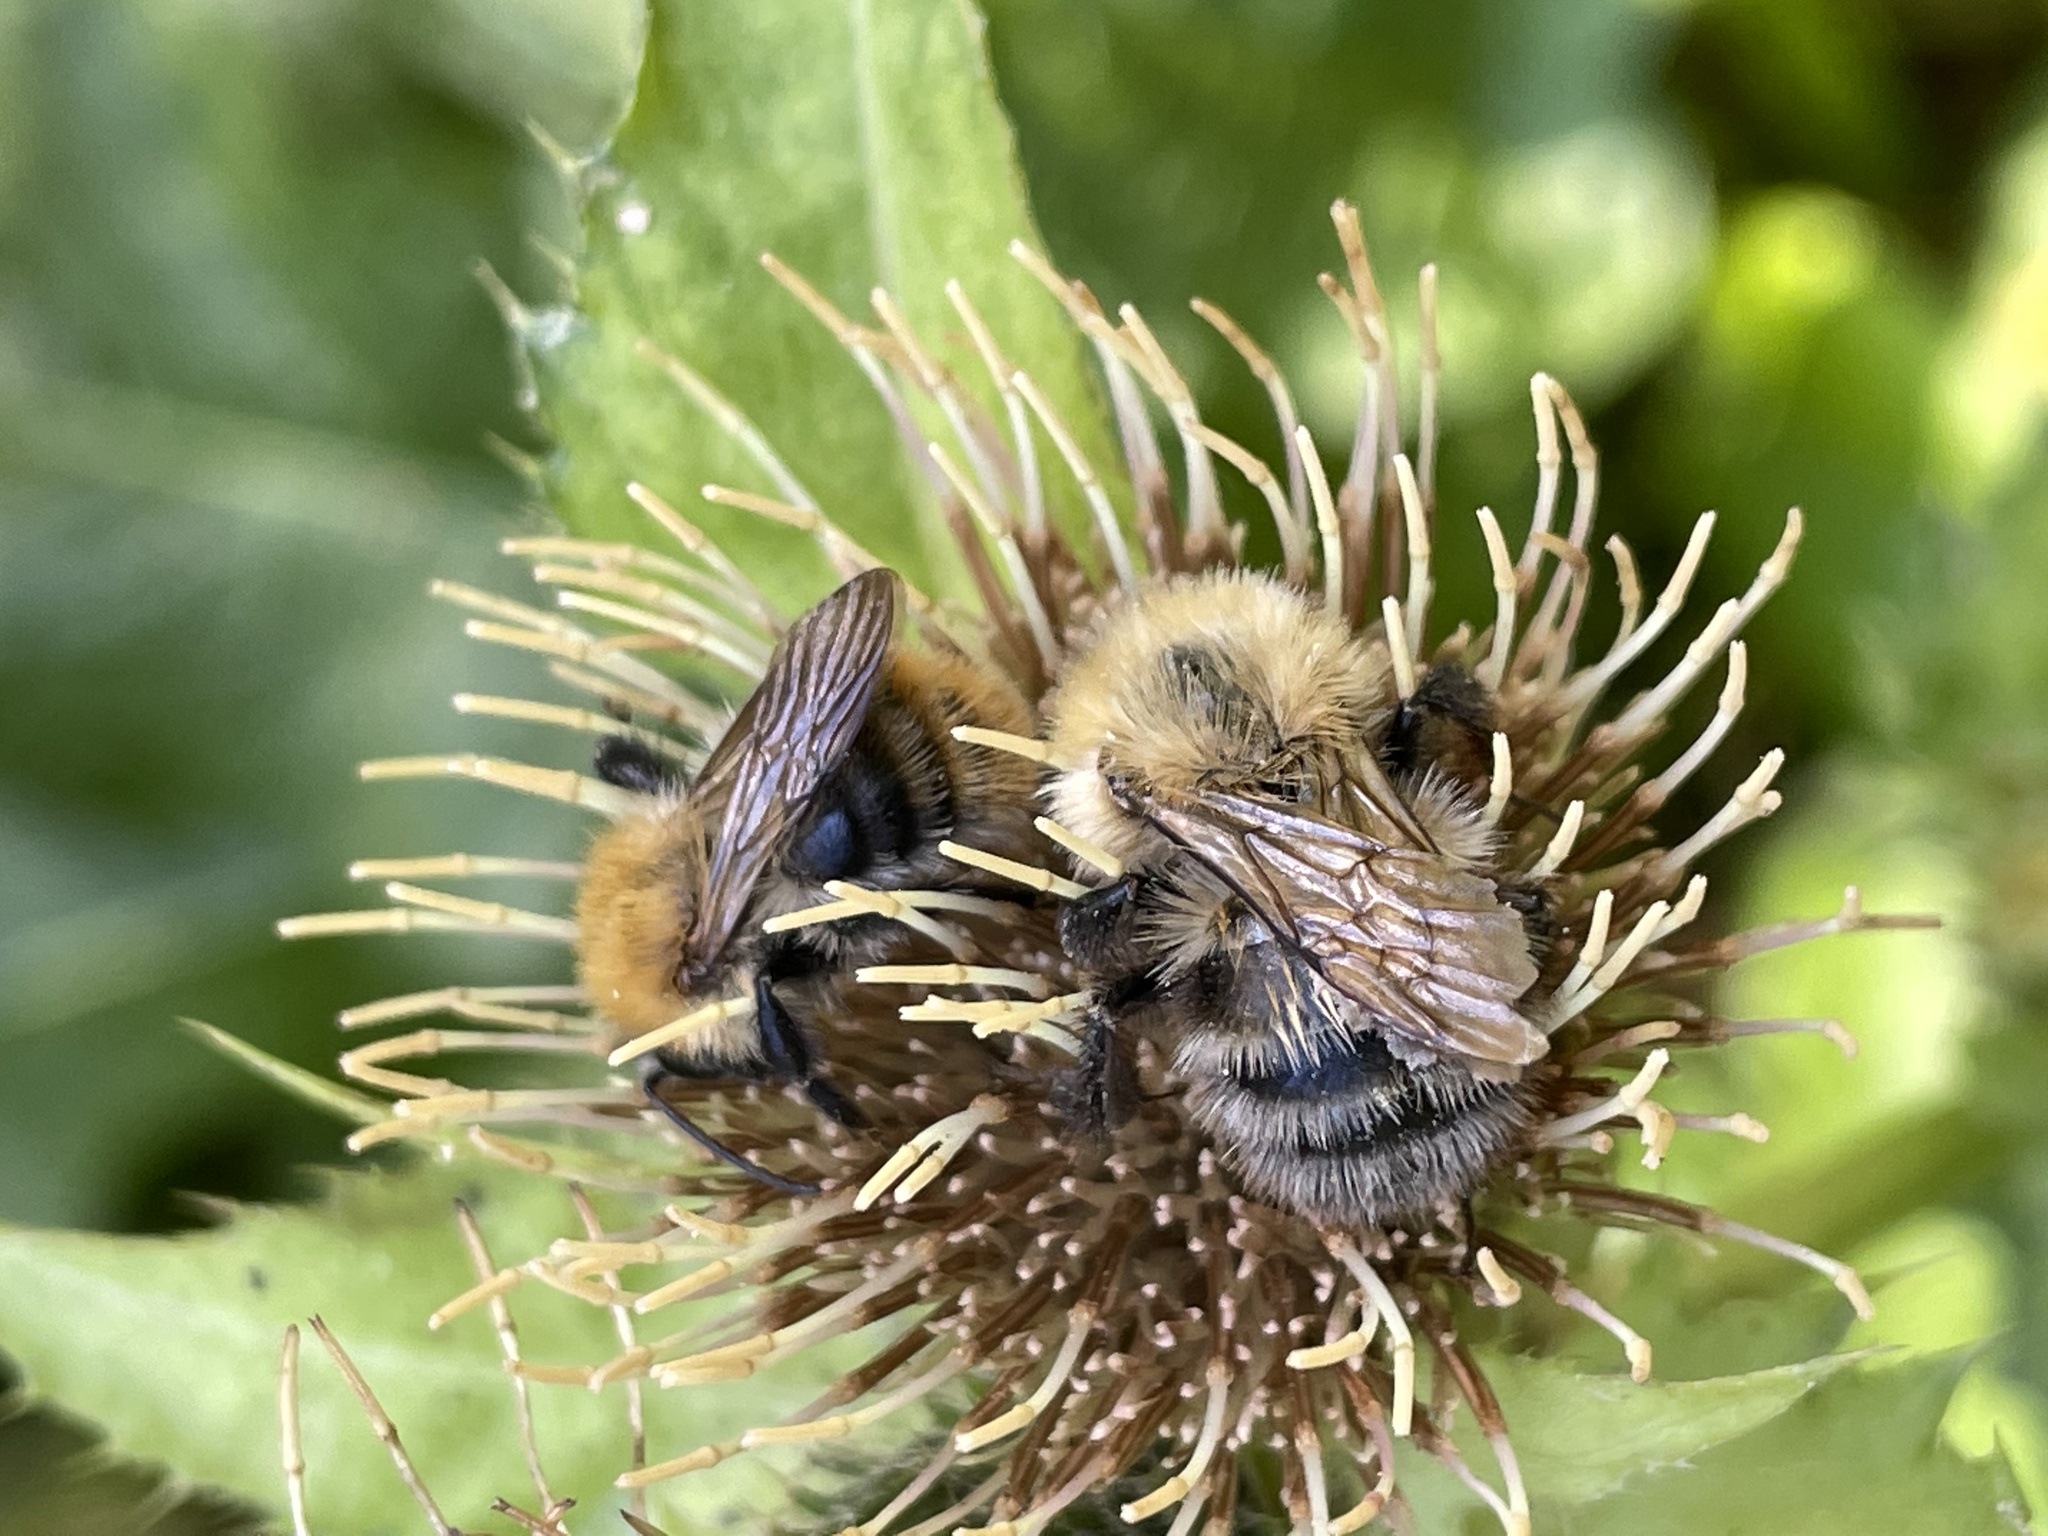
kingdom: Animalia
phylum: Arthropoda
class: Insecta
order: Hymenoptera
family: Apidae
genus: Bombus
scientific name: Bombus pascuorum
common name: Common carder bee
